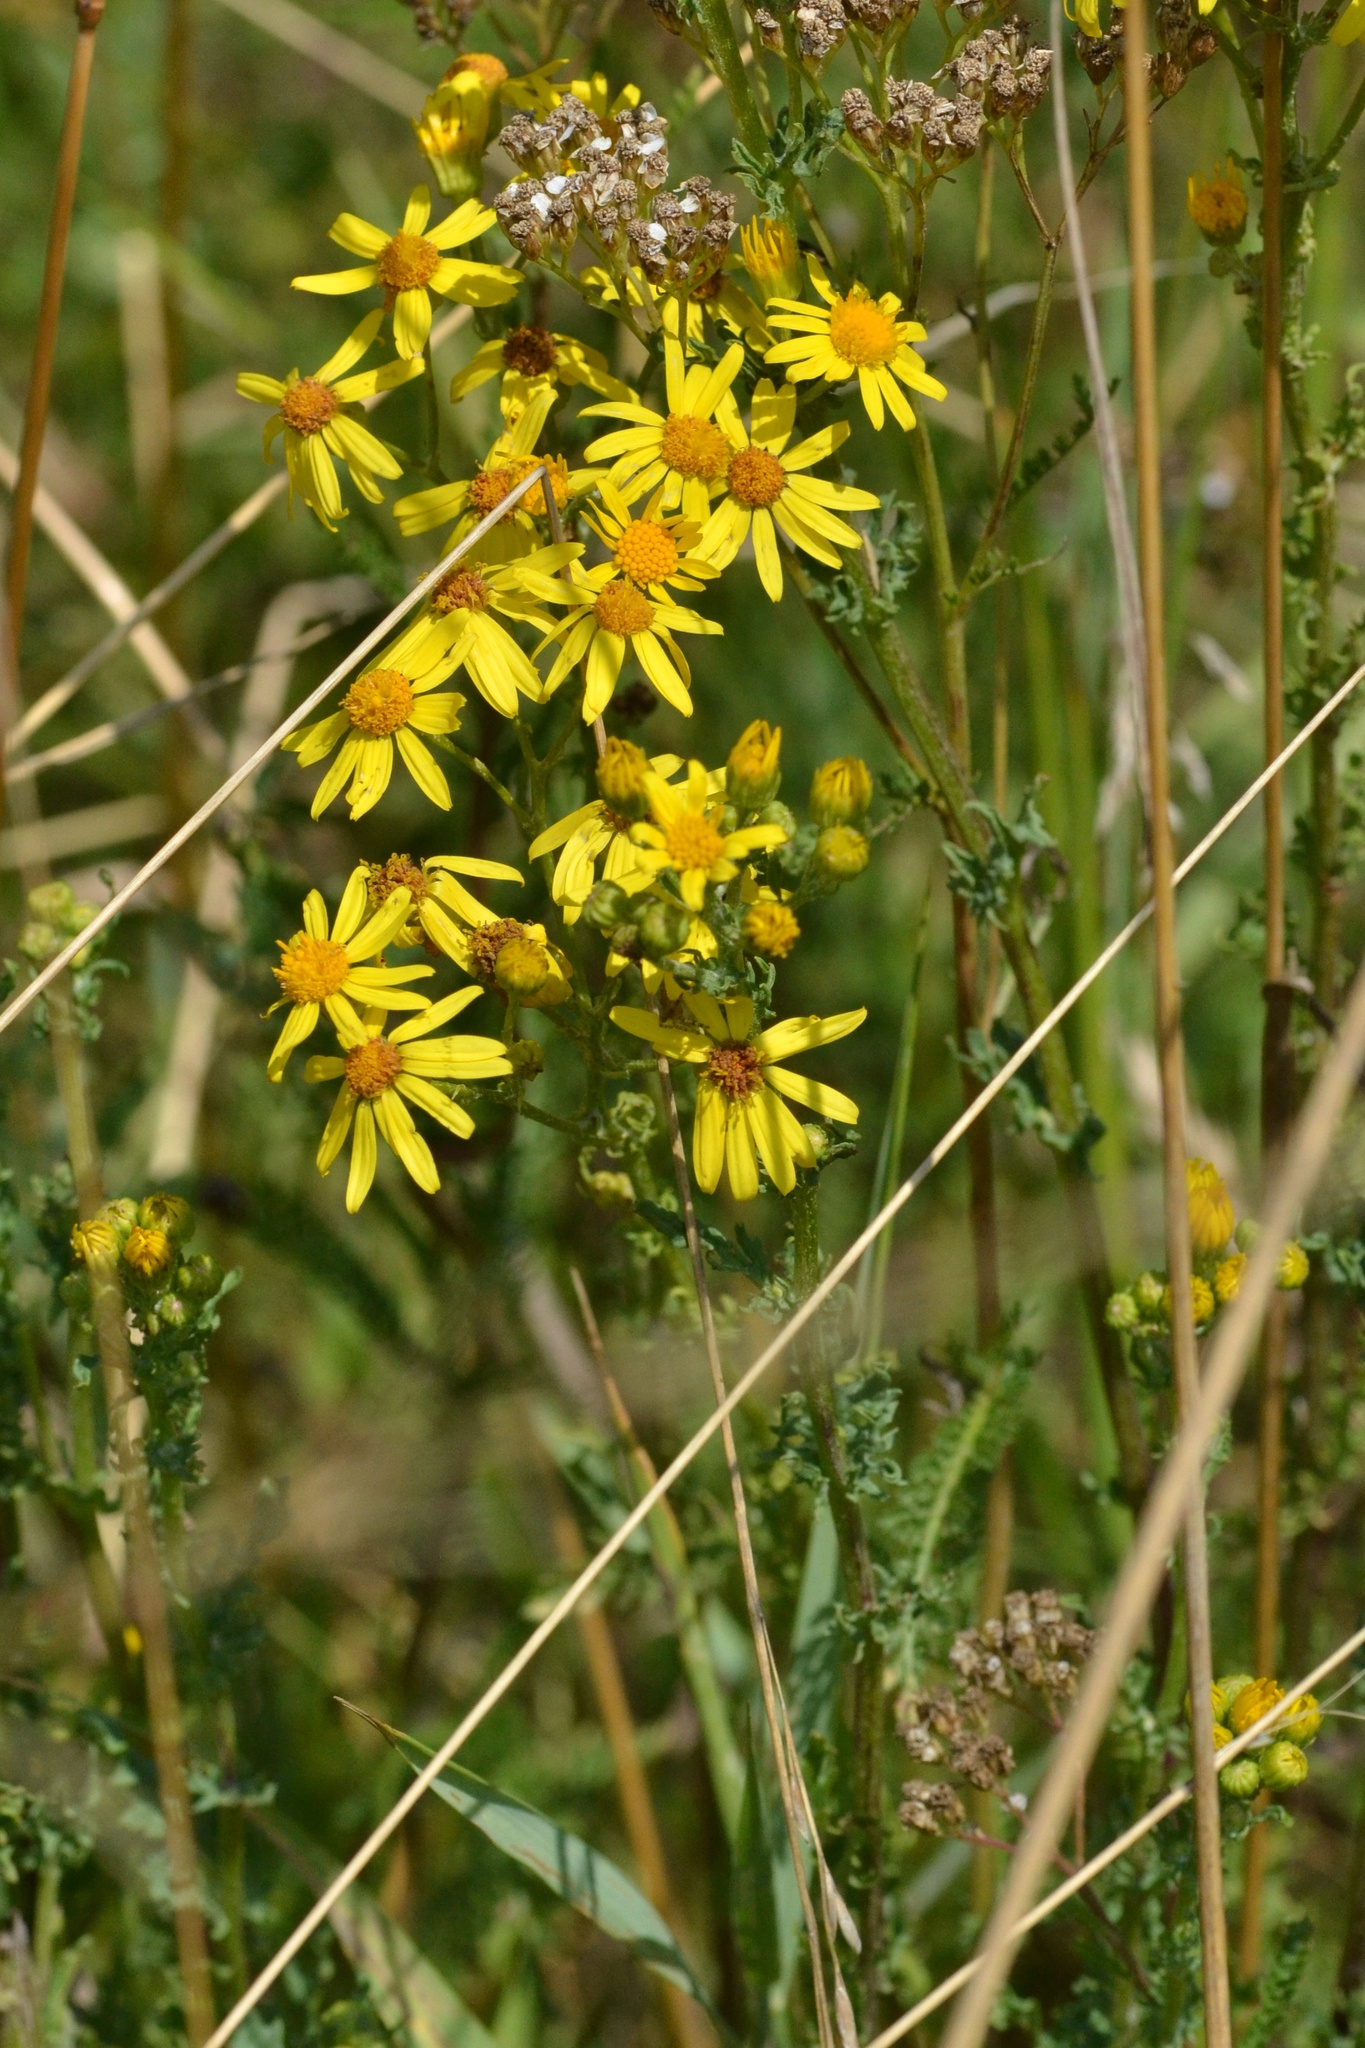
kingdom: Plantae
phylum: Tracheophyta
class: Magnoliopsida
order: Asterales
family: Asteraceae
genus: Jacobaea
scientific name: Jacobaea vulgaris
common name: Stinking willie
